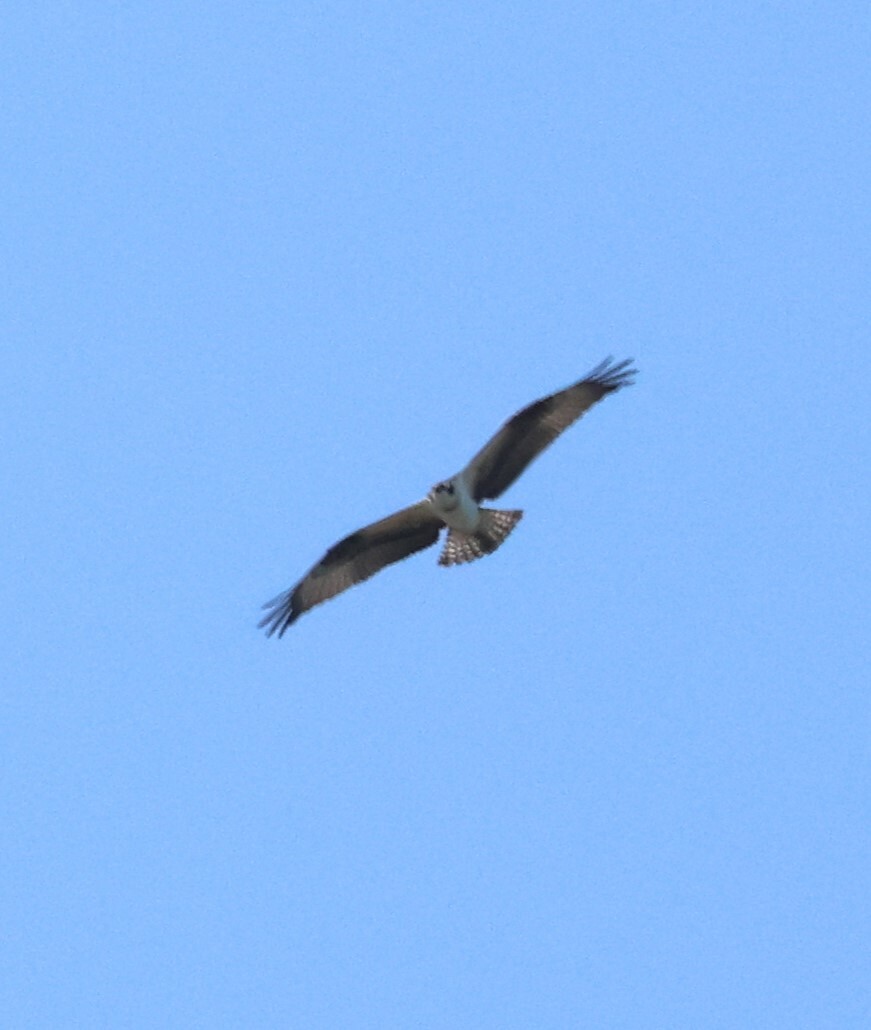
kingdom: Animalia
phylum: Chordata
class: Aves
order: Accipitriformes
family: Pandionidae
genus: Pandion
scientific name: Pandion haliaetus
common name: Osprey
